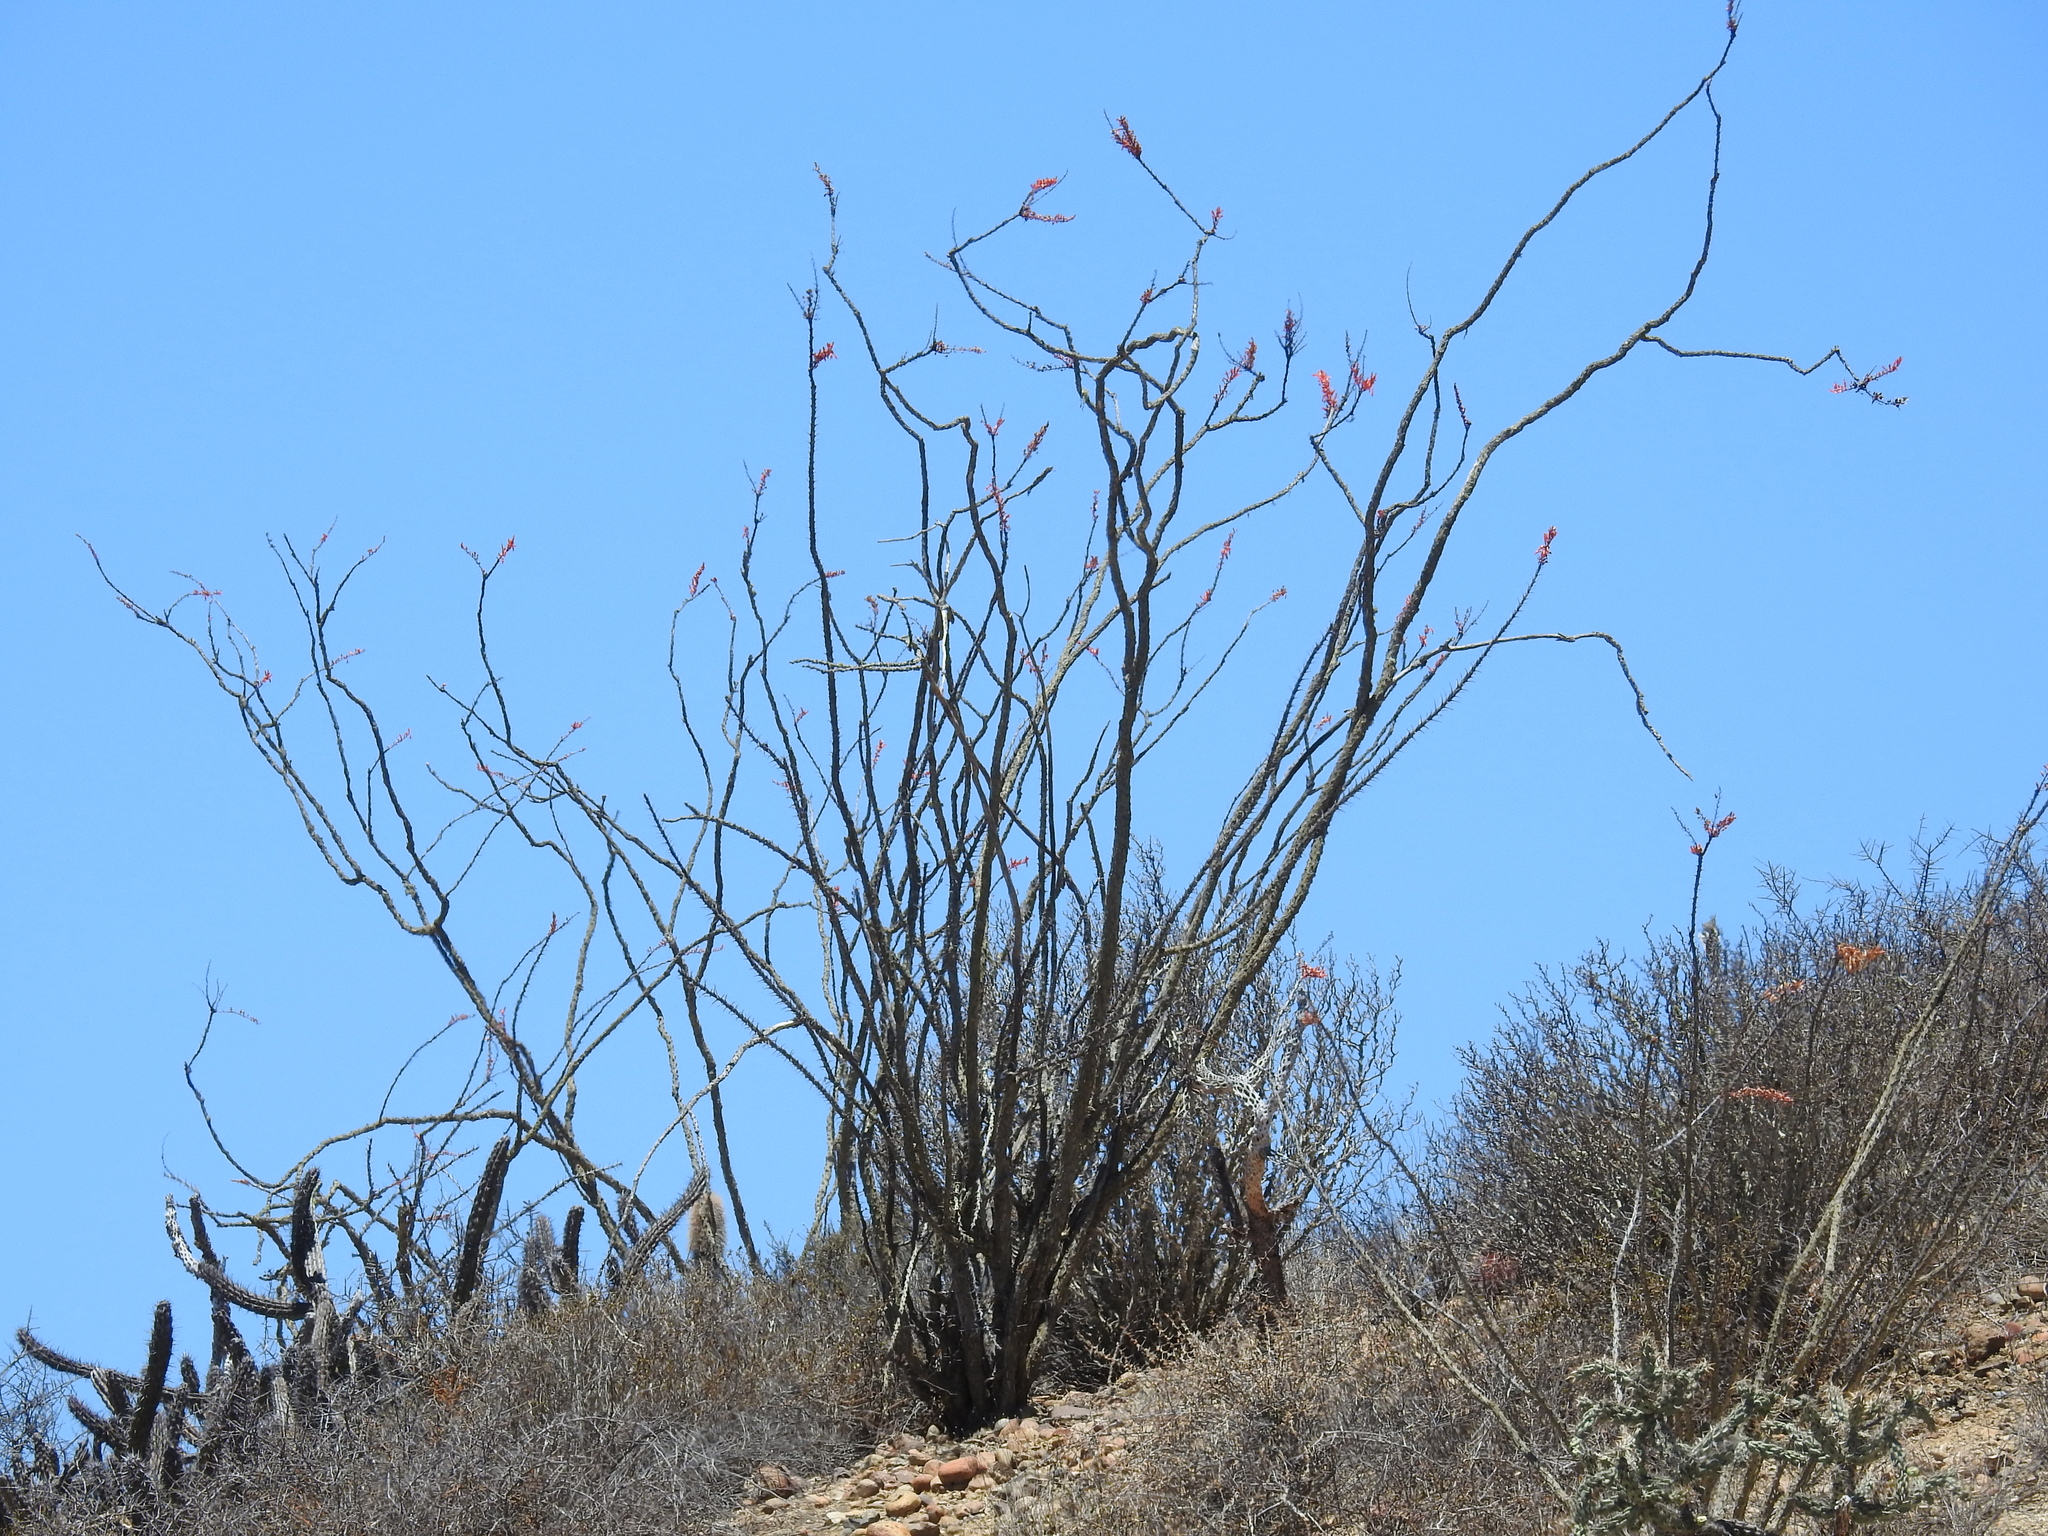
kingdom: Plantae
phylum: Tracheophyta
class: Magnoliopsida
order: Ericales
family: Fouquieriaceae
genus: Fouquieria
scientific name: Fouquieria splendens
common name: Vine-cactus
